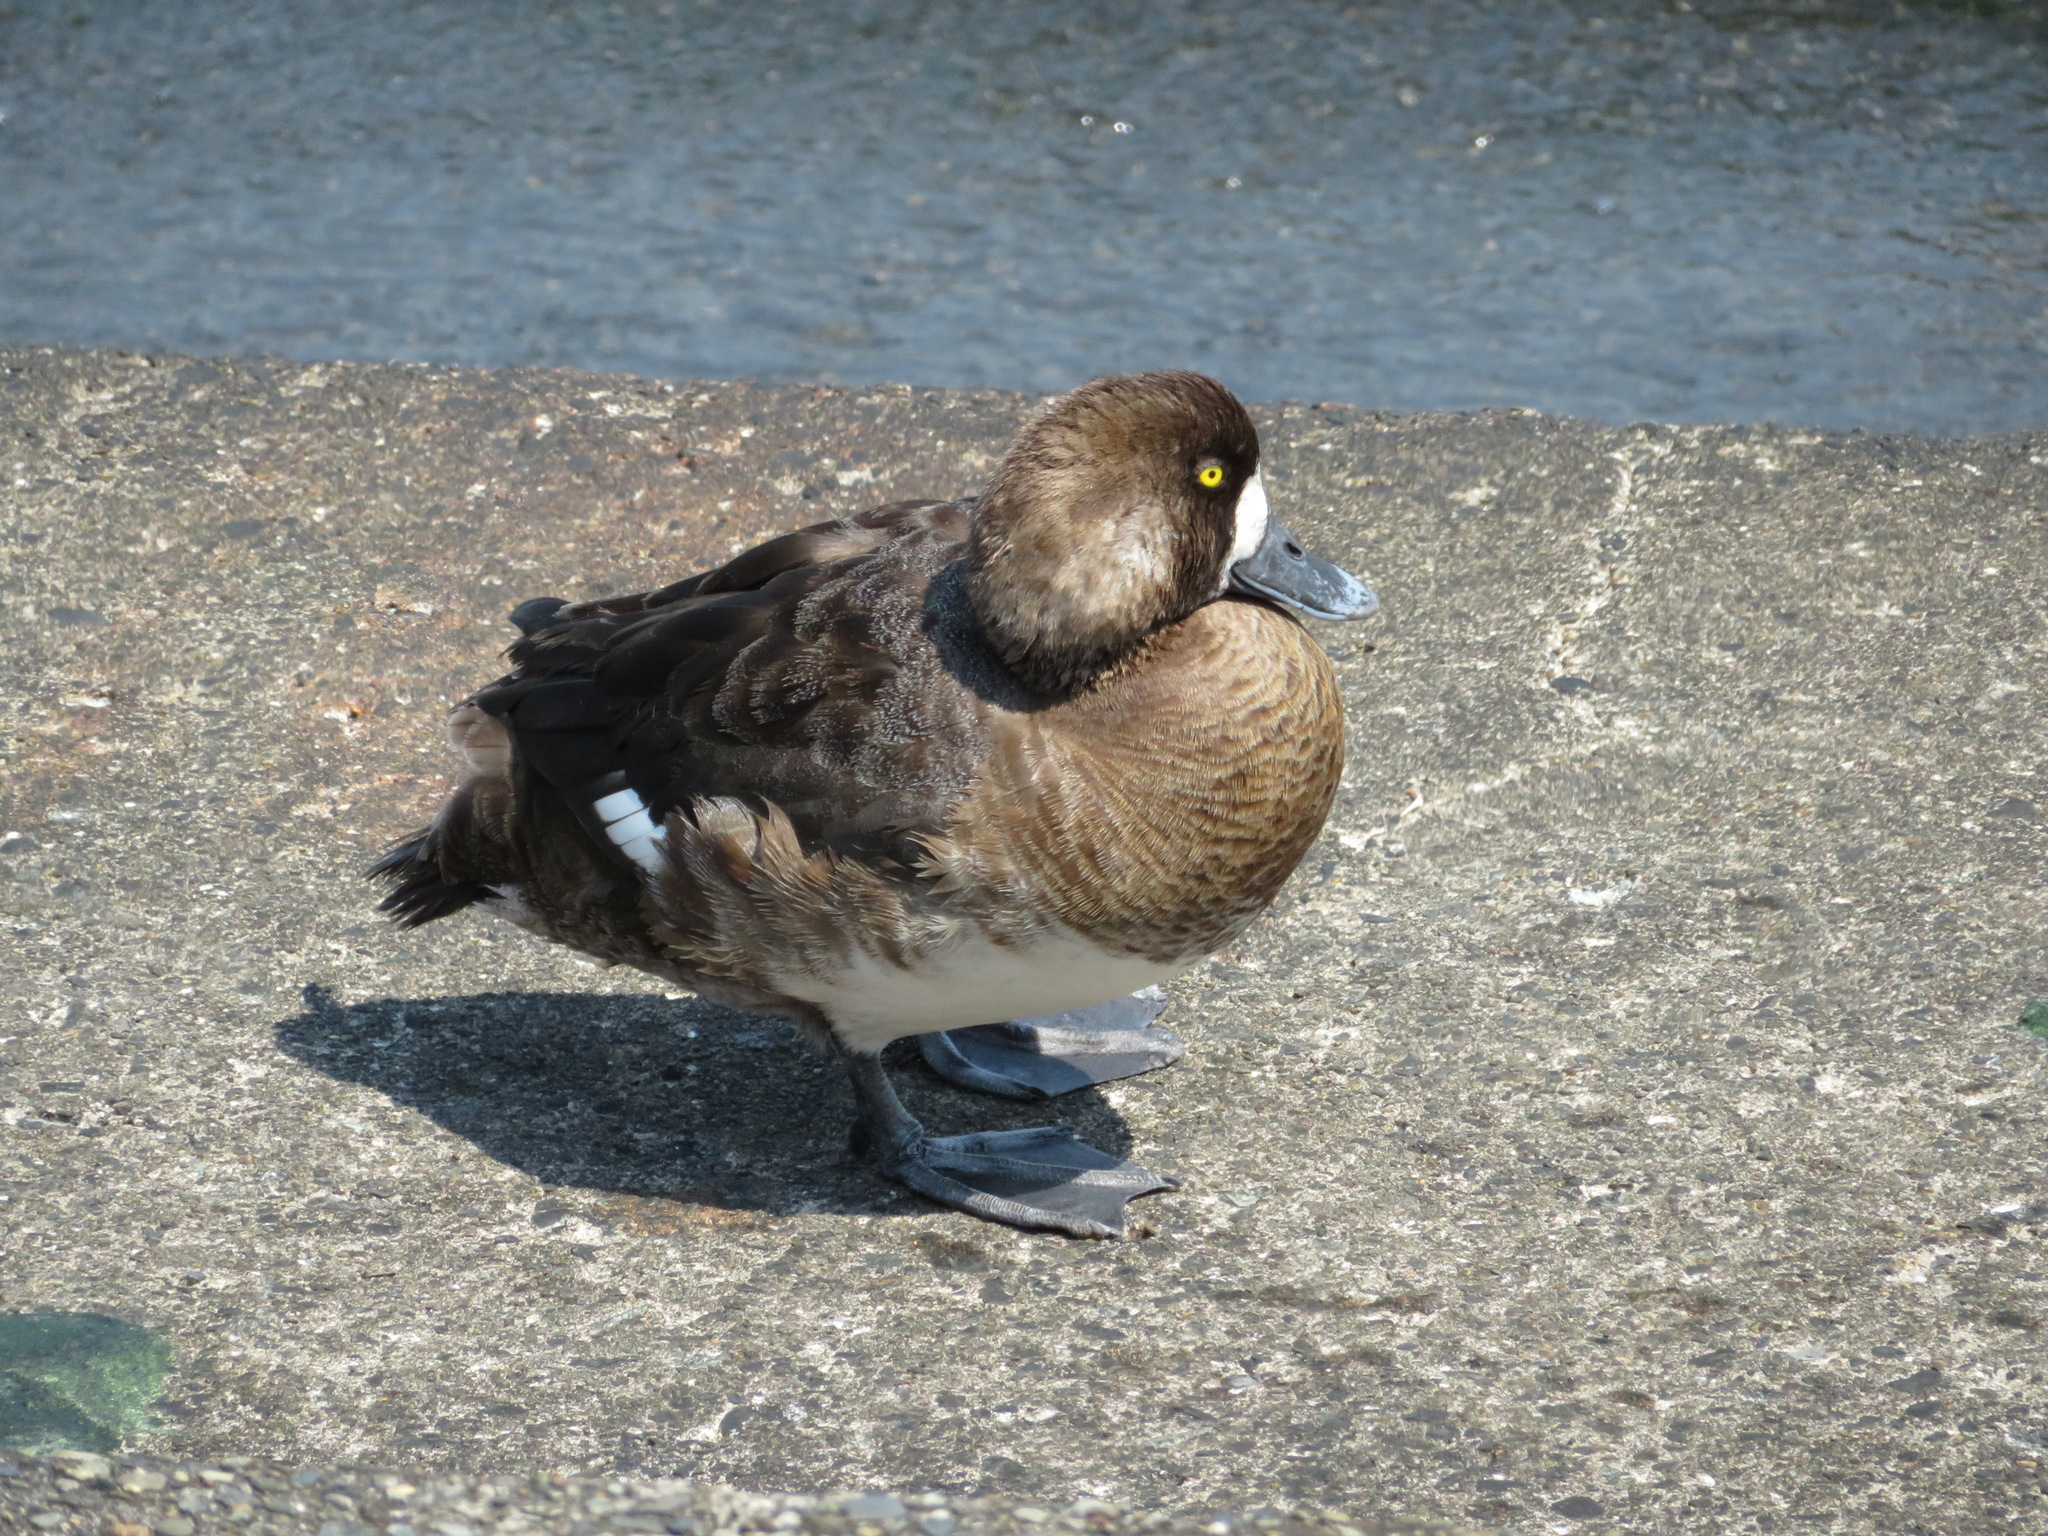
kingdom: Animalia
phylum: Chordata
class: Aves
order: Anseriformes
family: Anatidae
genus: Aythya
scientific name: Aythya marila
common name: Greater scaup
